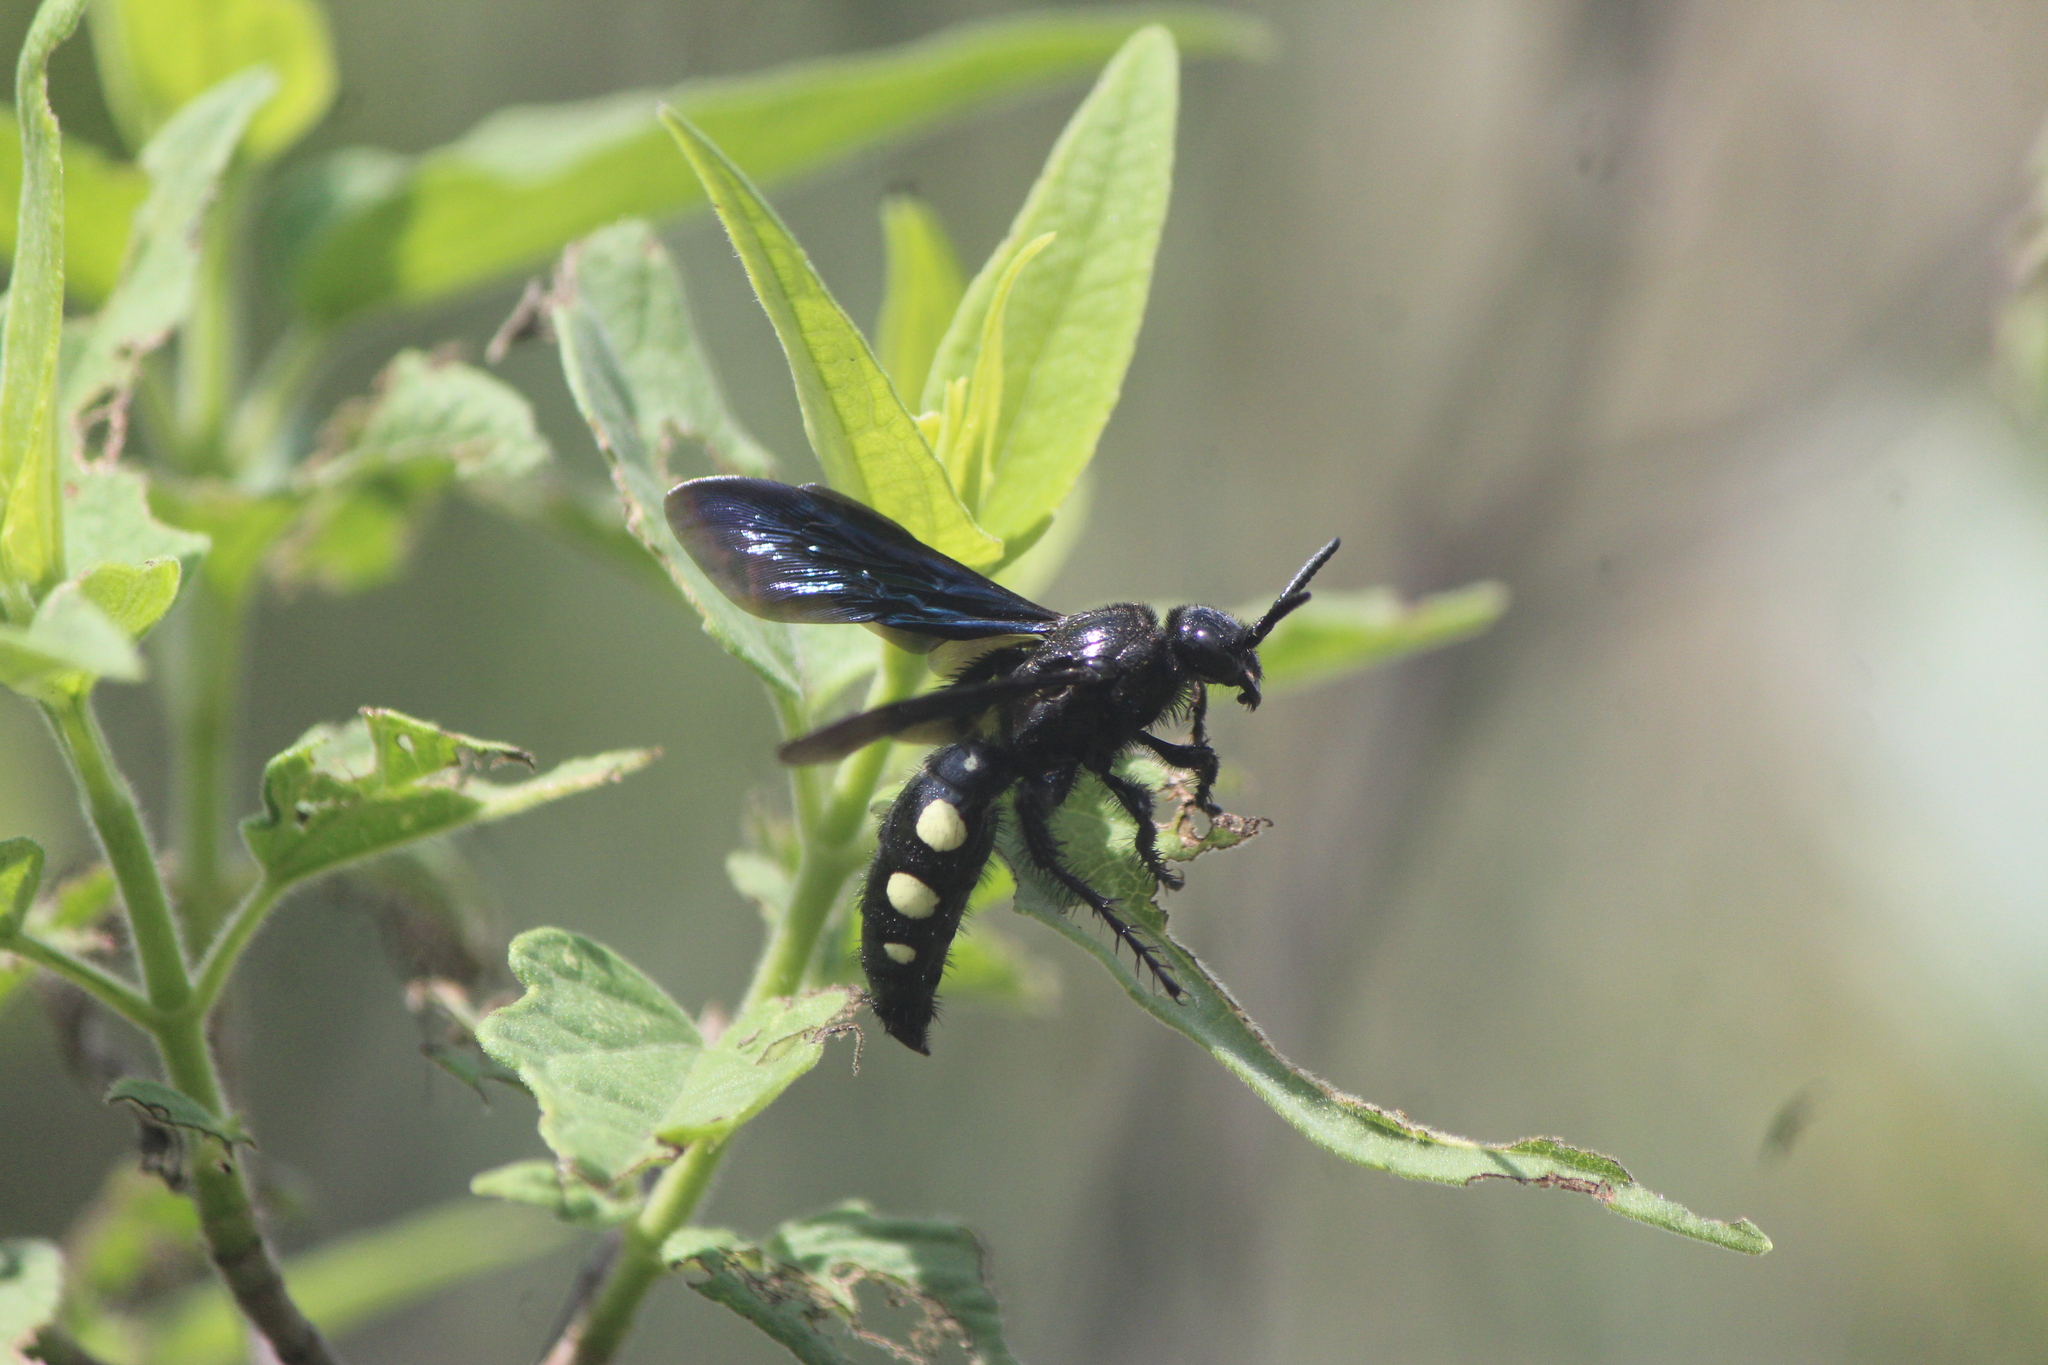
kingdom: Animalia
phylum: Arthropoda
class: Insecta
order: Hymenoptera
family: Scoliidae
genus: Scolia
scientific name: Scolia guttata
